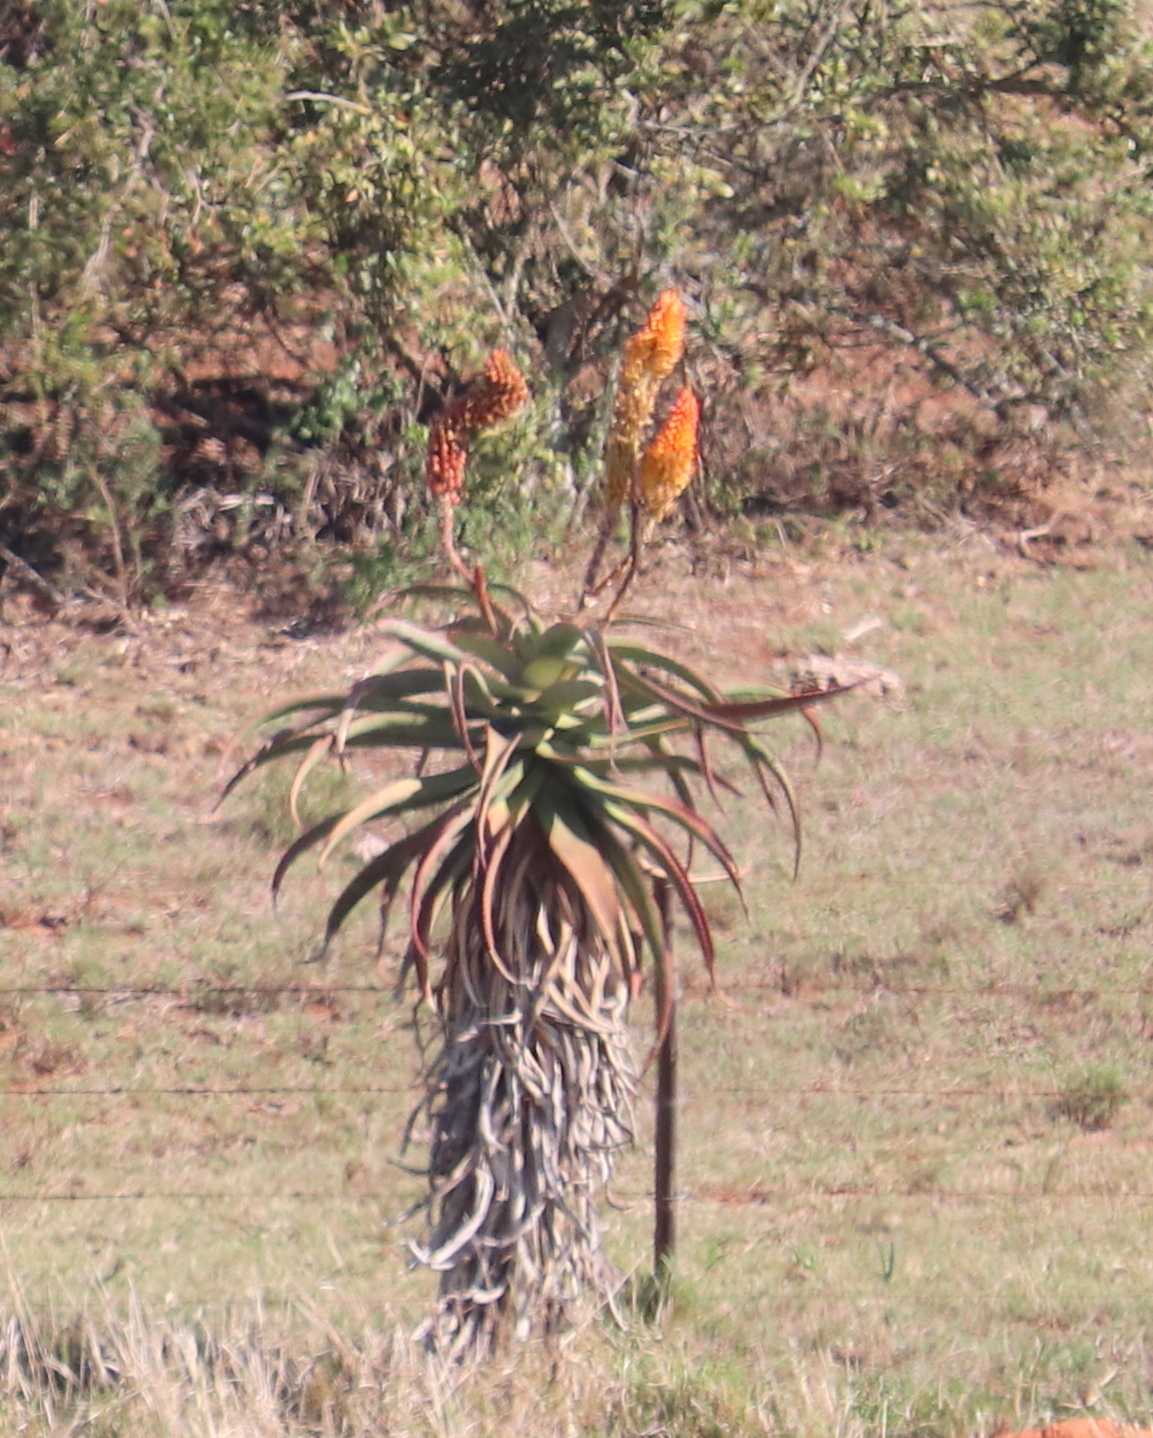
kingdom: Plantae
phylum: Tracheophyta
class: Liliopsida
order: Asparagales
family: Asphodelaceae
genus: Aloe
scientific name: Aloe africana
